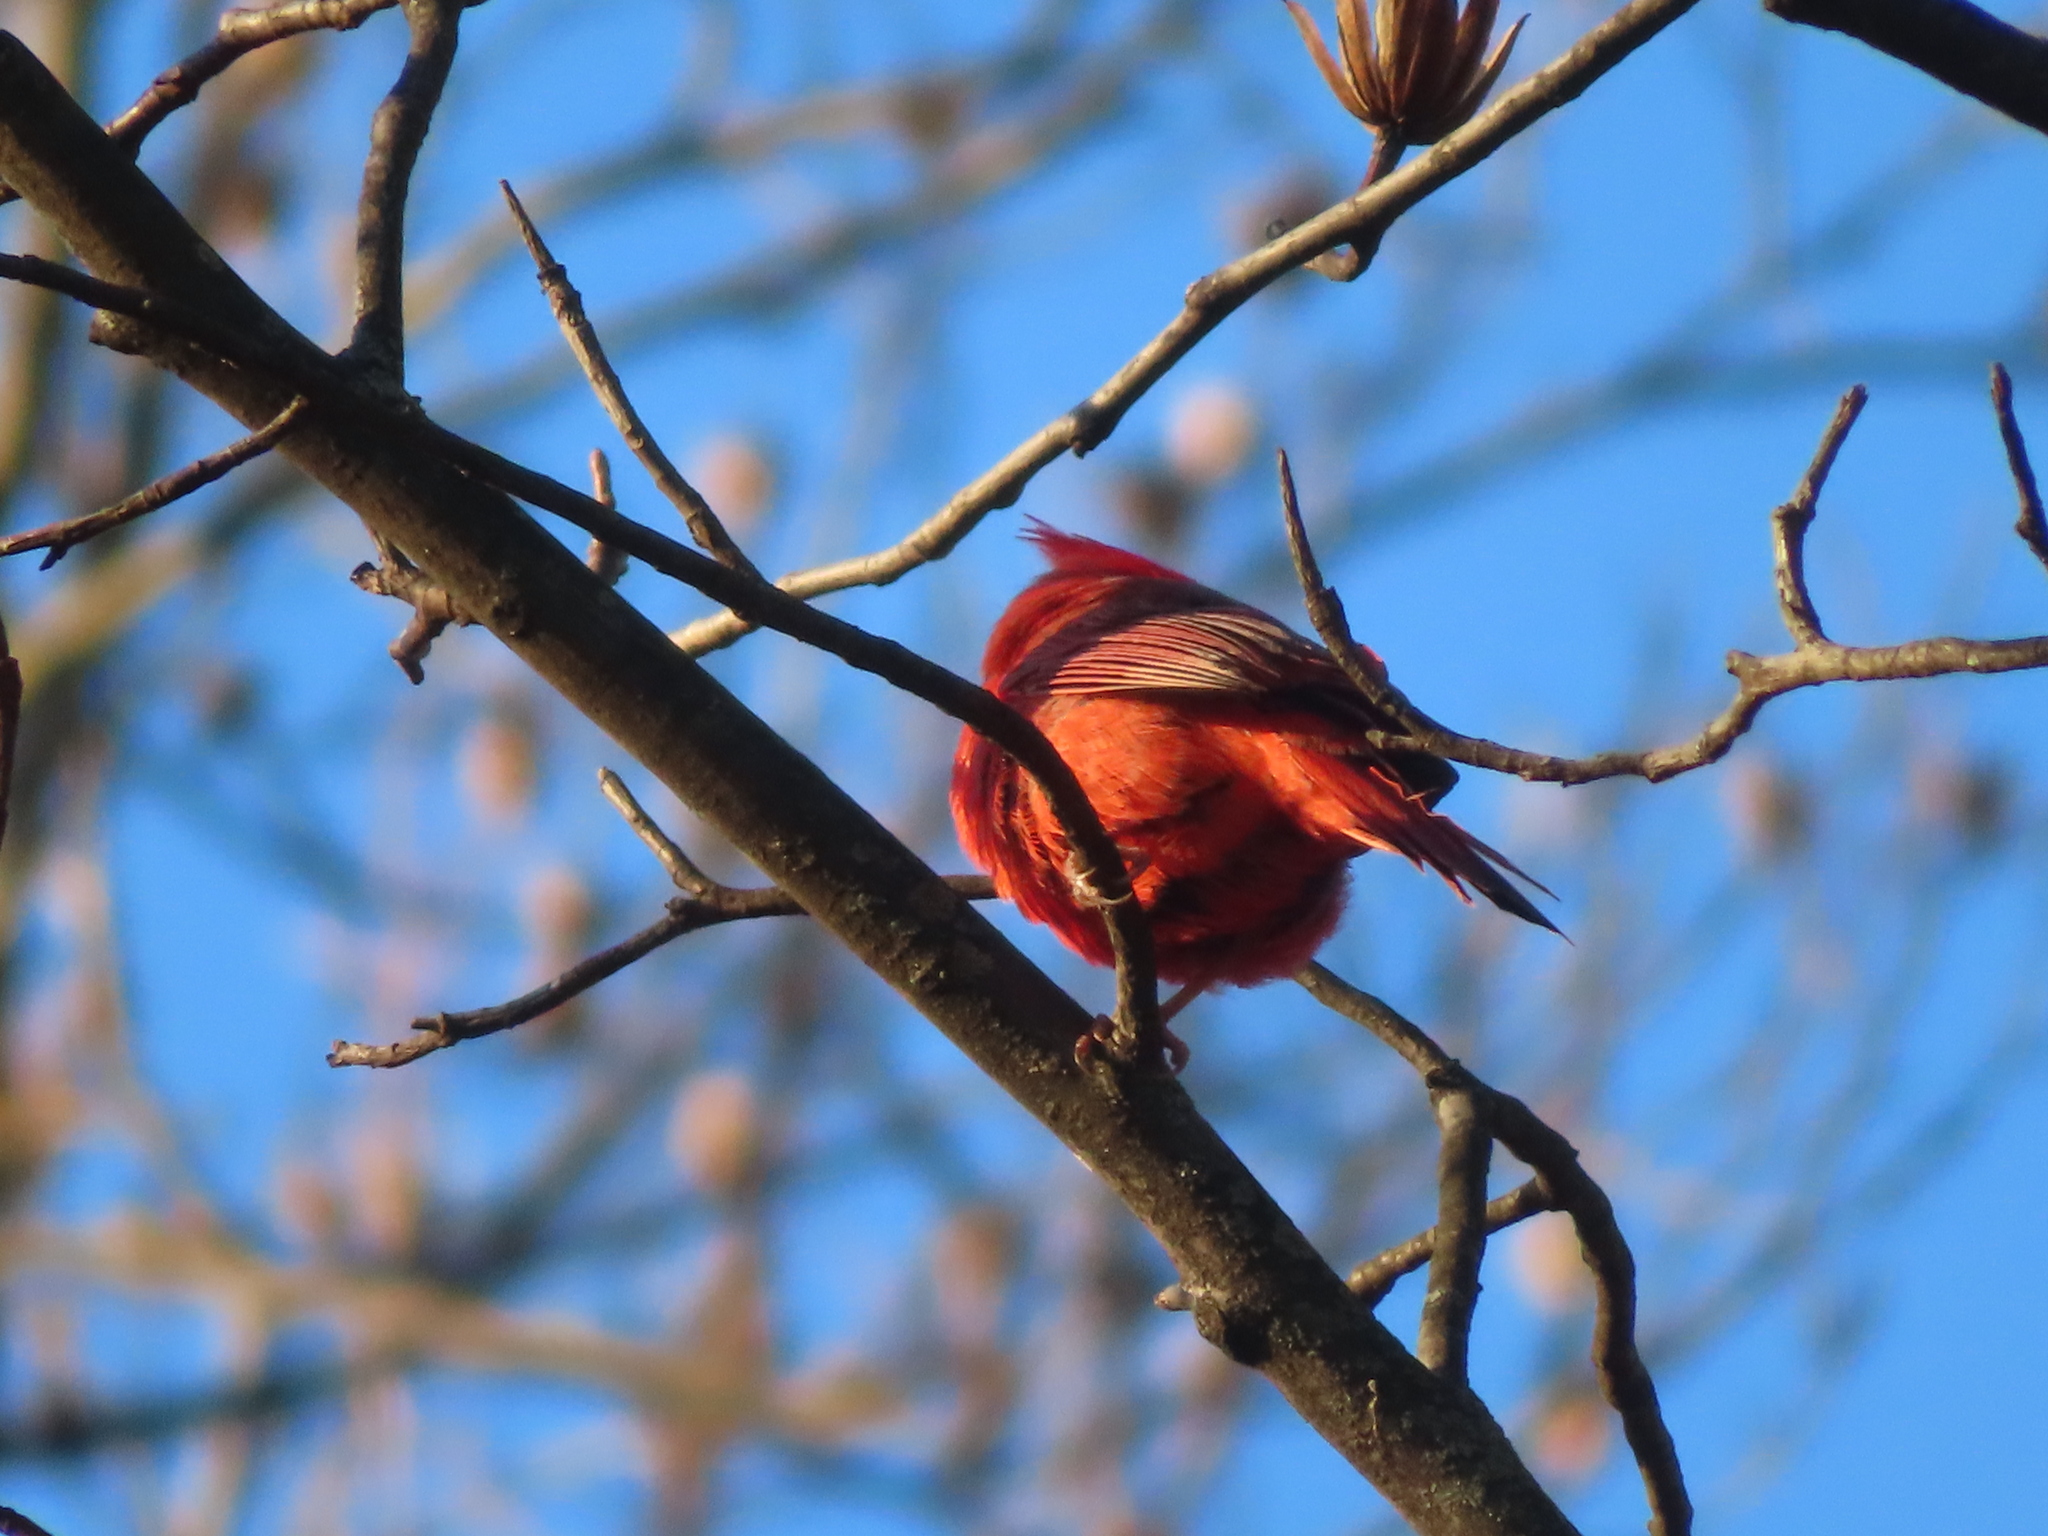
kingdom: Animalia
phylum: Chordata
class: Aves
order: Passeriformes
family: Cardinalidae
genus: Cardinalis
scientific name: Cardinalis cardinalis
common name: Northern cardinal
